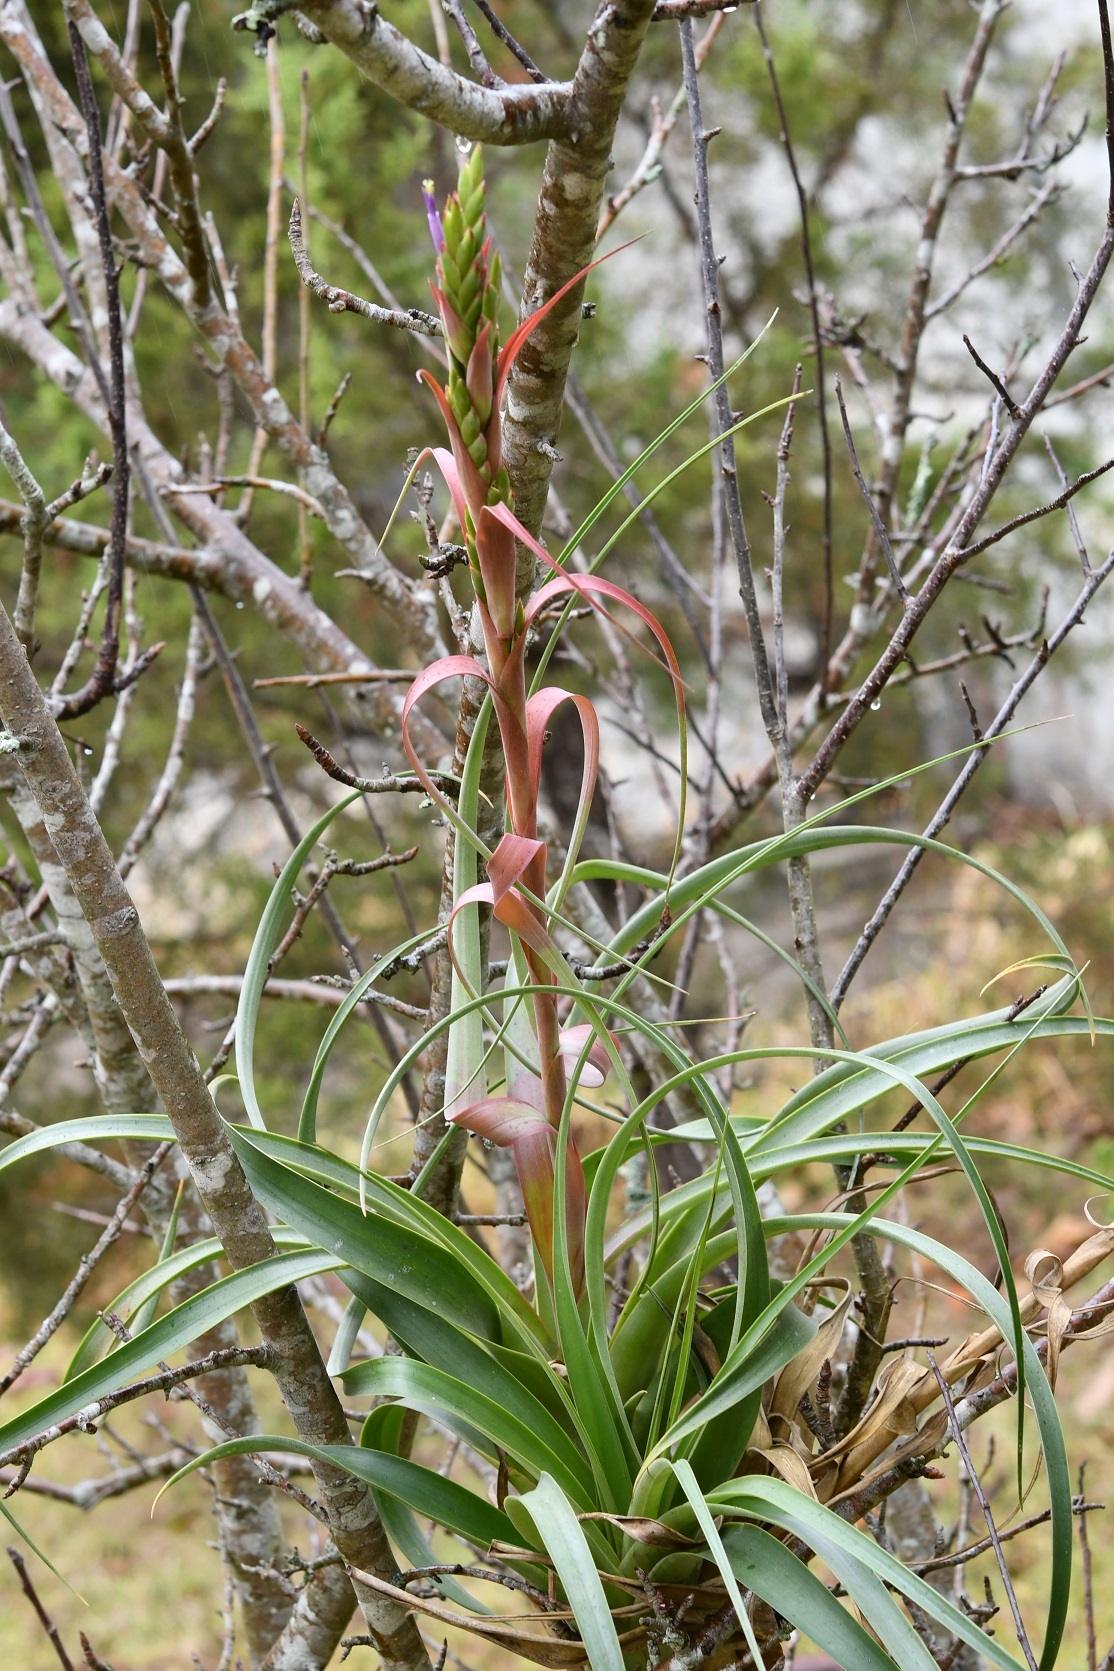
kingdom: Plantae
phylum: Tracheophyta
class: Liliopsida
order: Poales
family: Bromeliaceae
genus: Tillandsia
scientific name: Tillandsia belloensis
